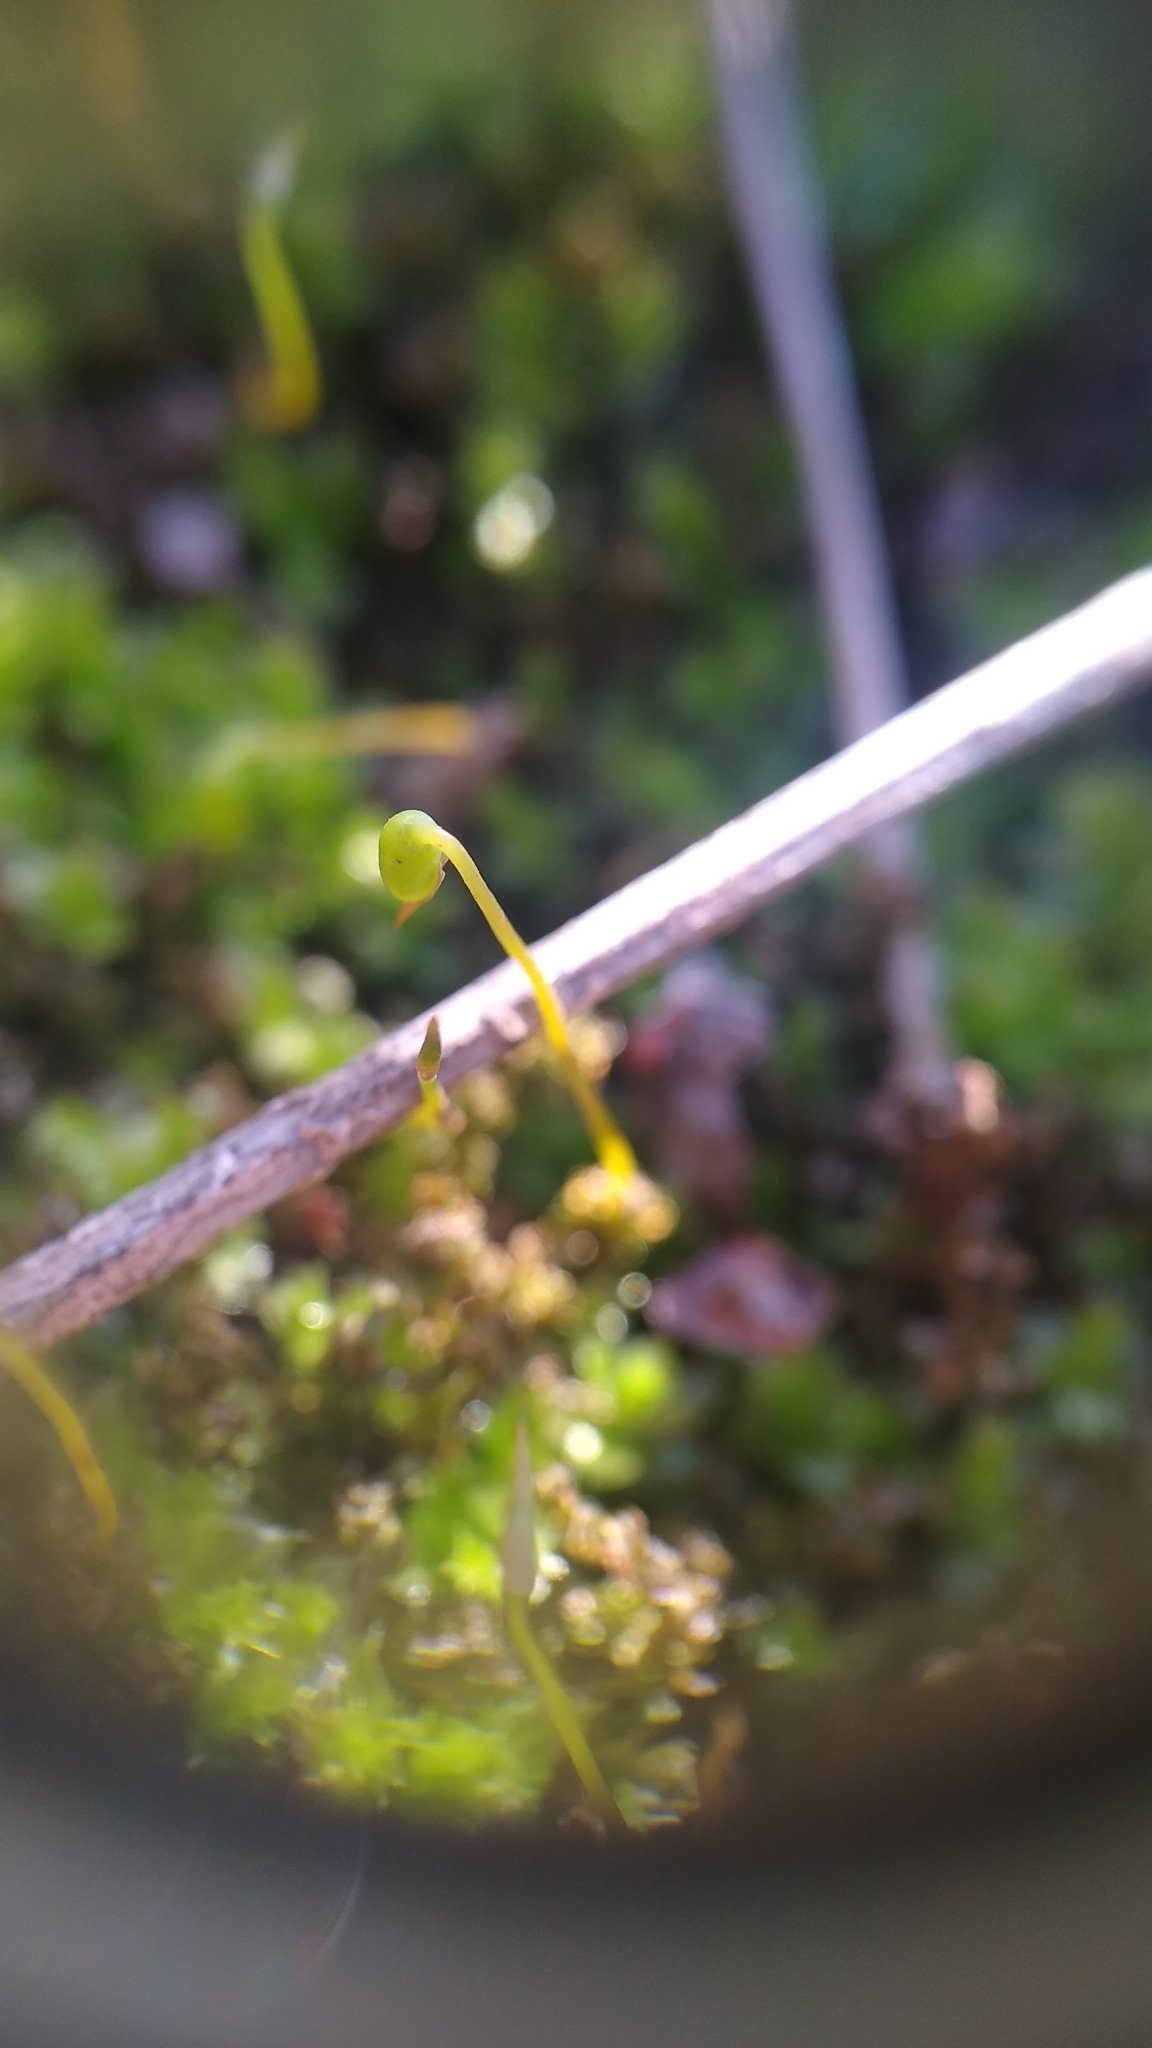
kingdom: Plantae
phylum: Bryophyta
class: Bryopsida
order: Bryales
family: Mniaceae
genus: Plagiomnium
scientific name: Plagiomnium cuspidatum
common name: Woodsy leafy moss
